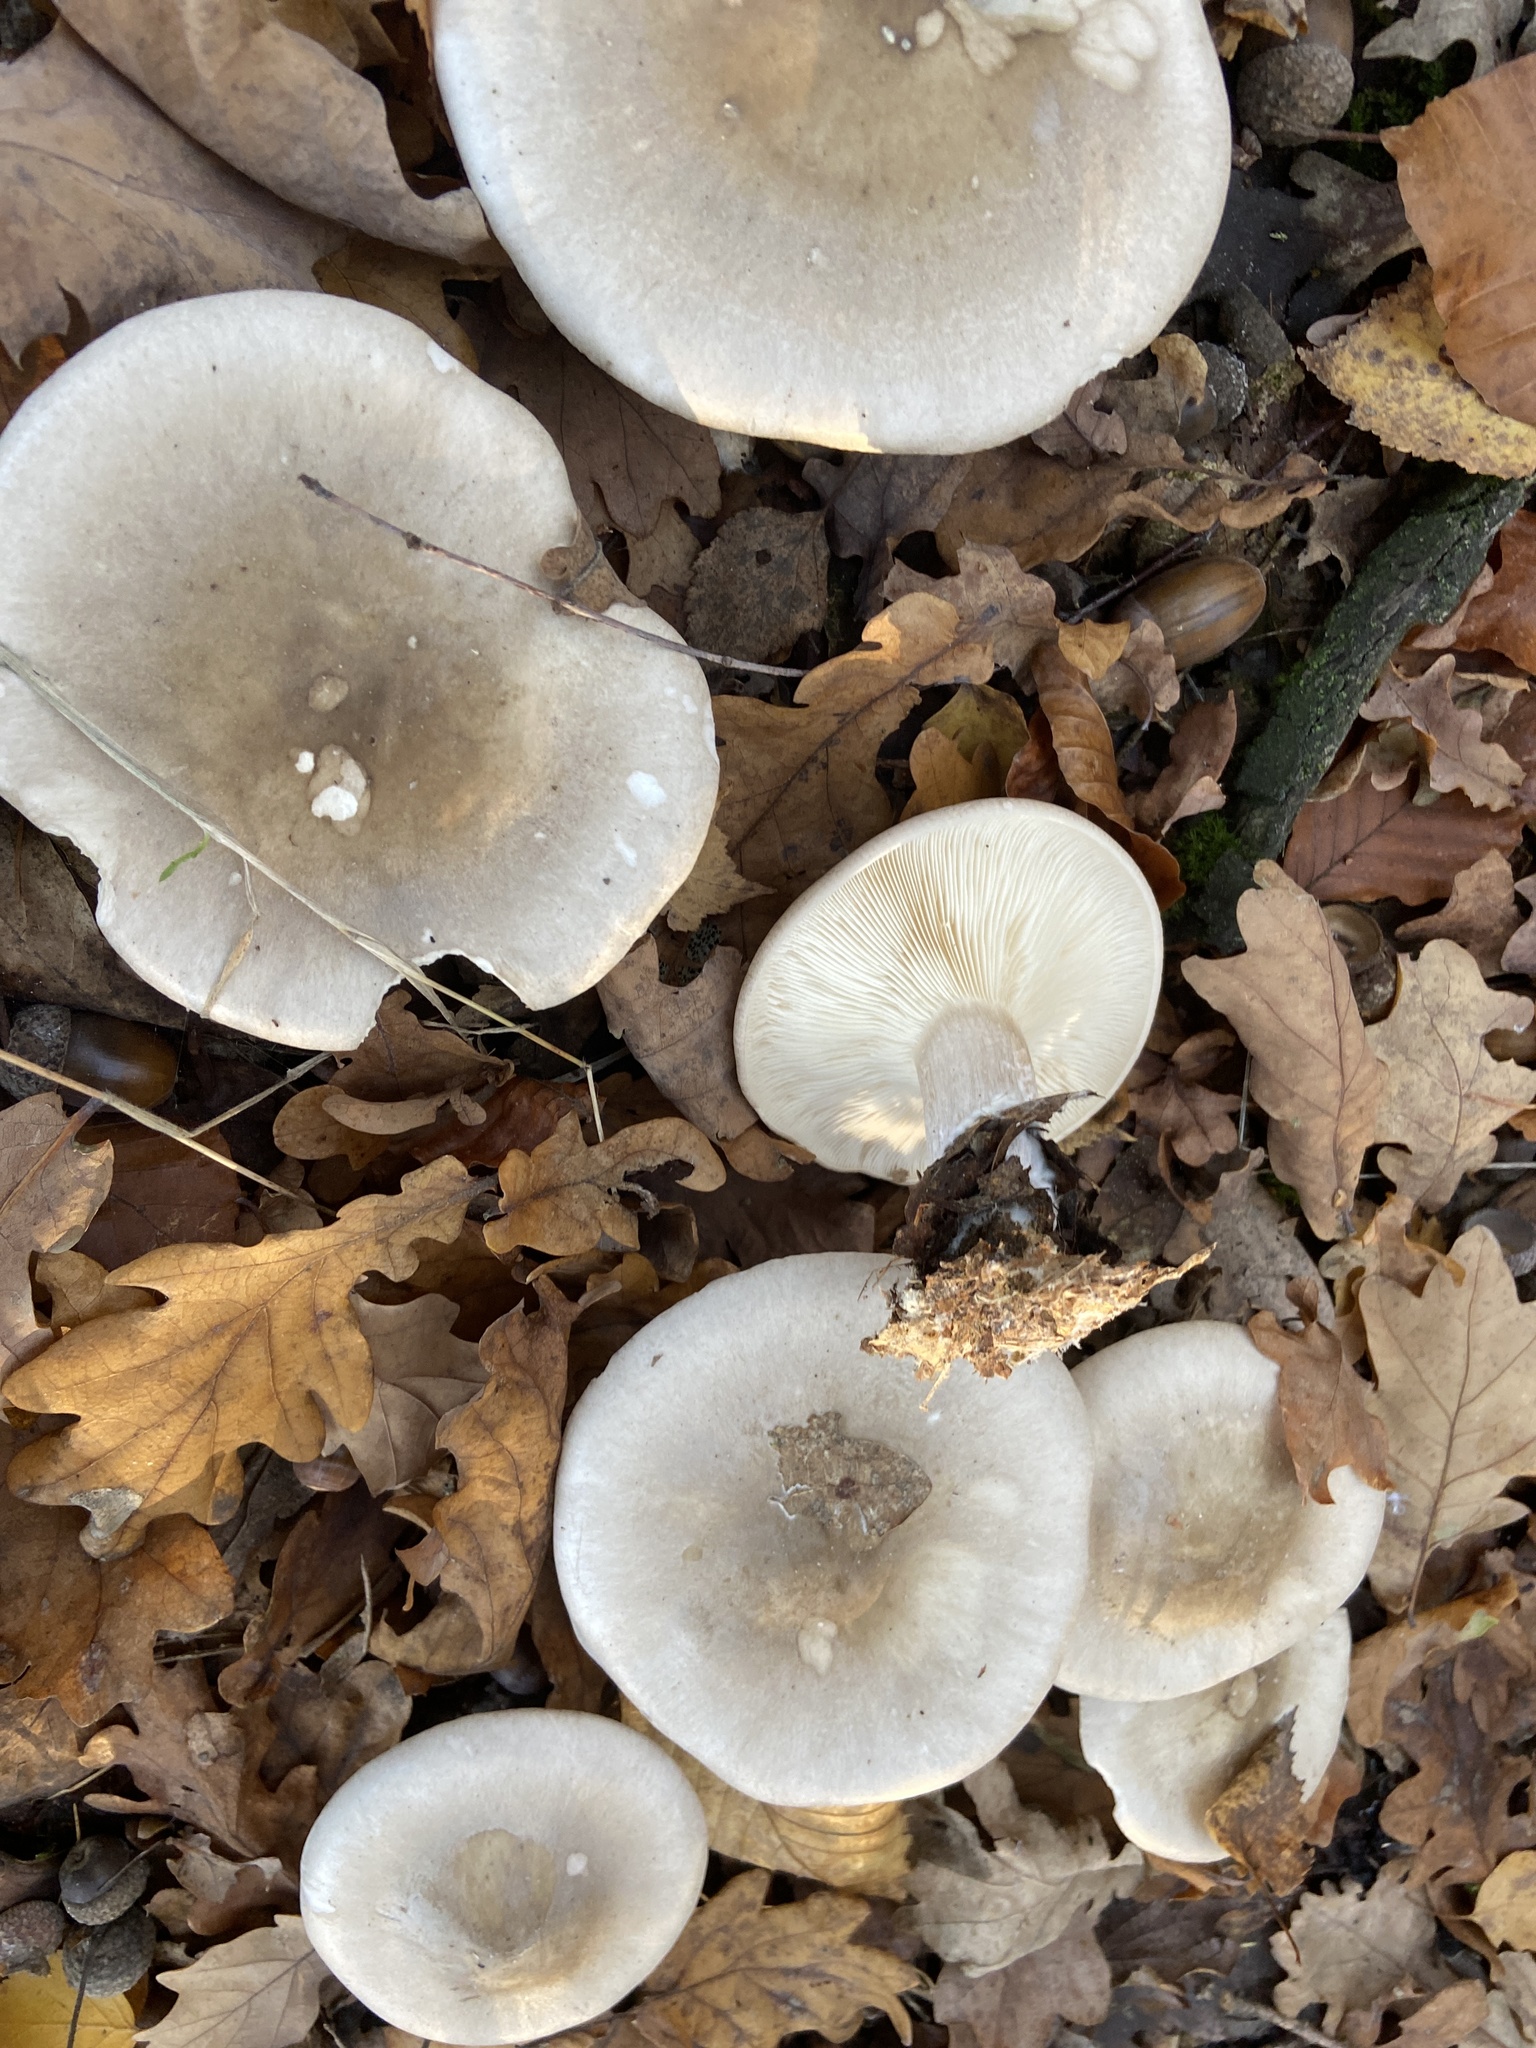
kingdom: Fungi
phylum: Basidiomycota
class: Agaricomycetes
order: Agaricales
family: Tricholomataceae
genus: Clitocybe
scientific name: Clitocybe nebularis
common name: Clouded agaric
